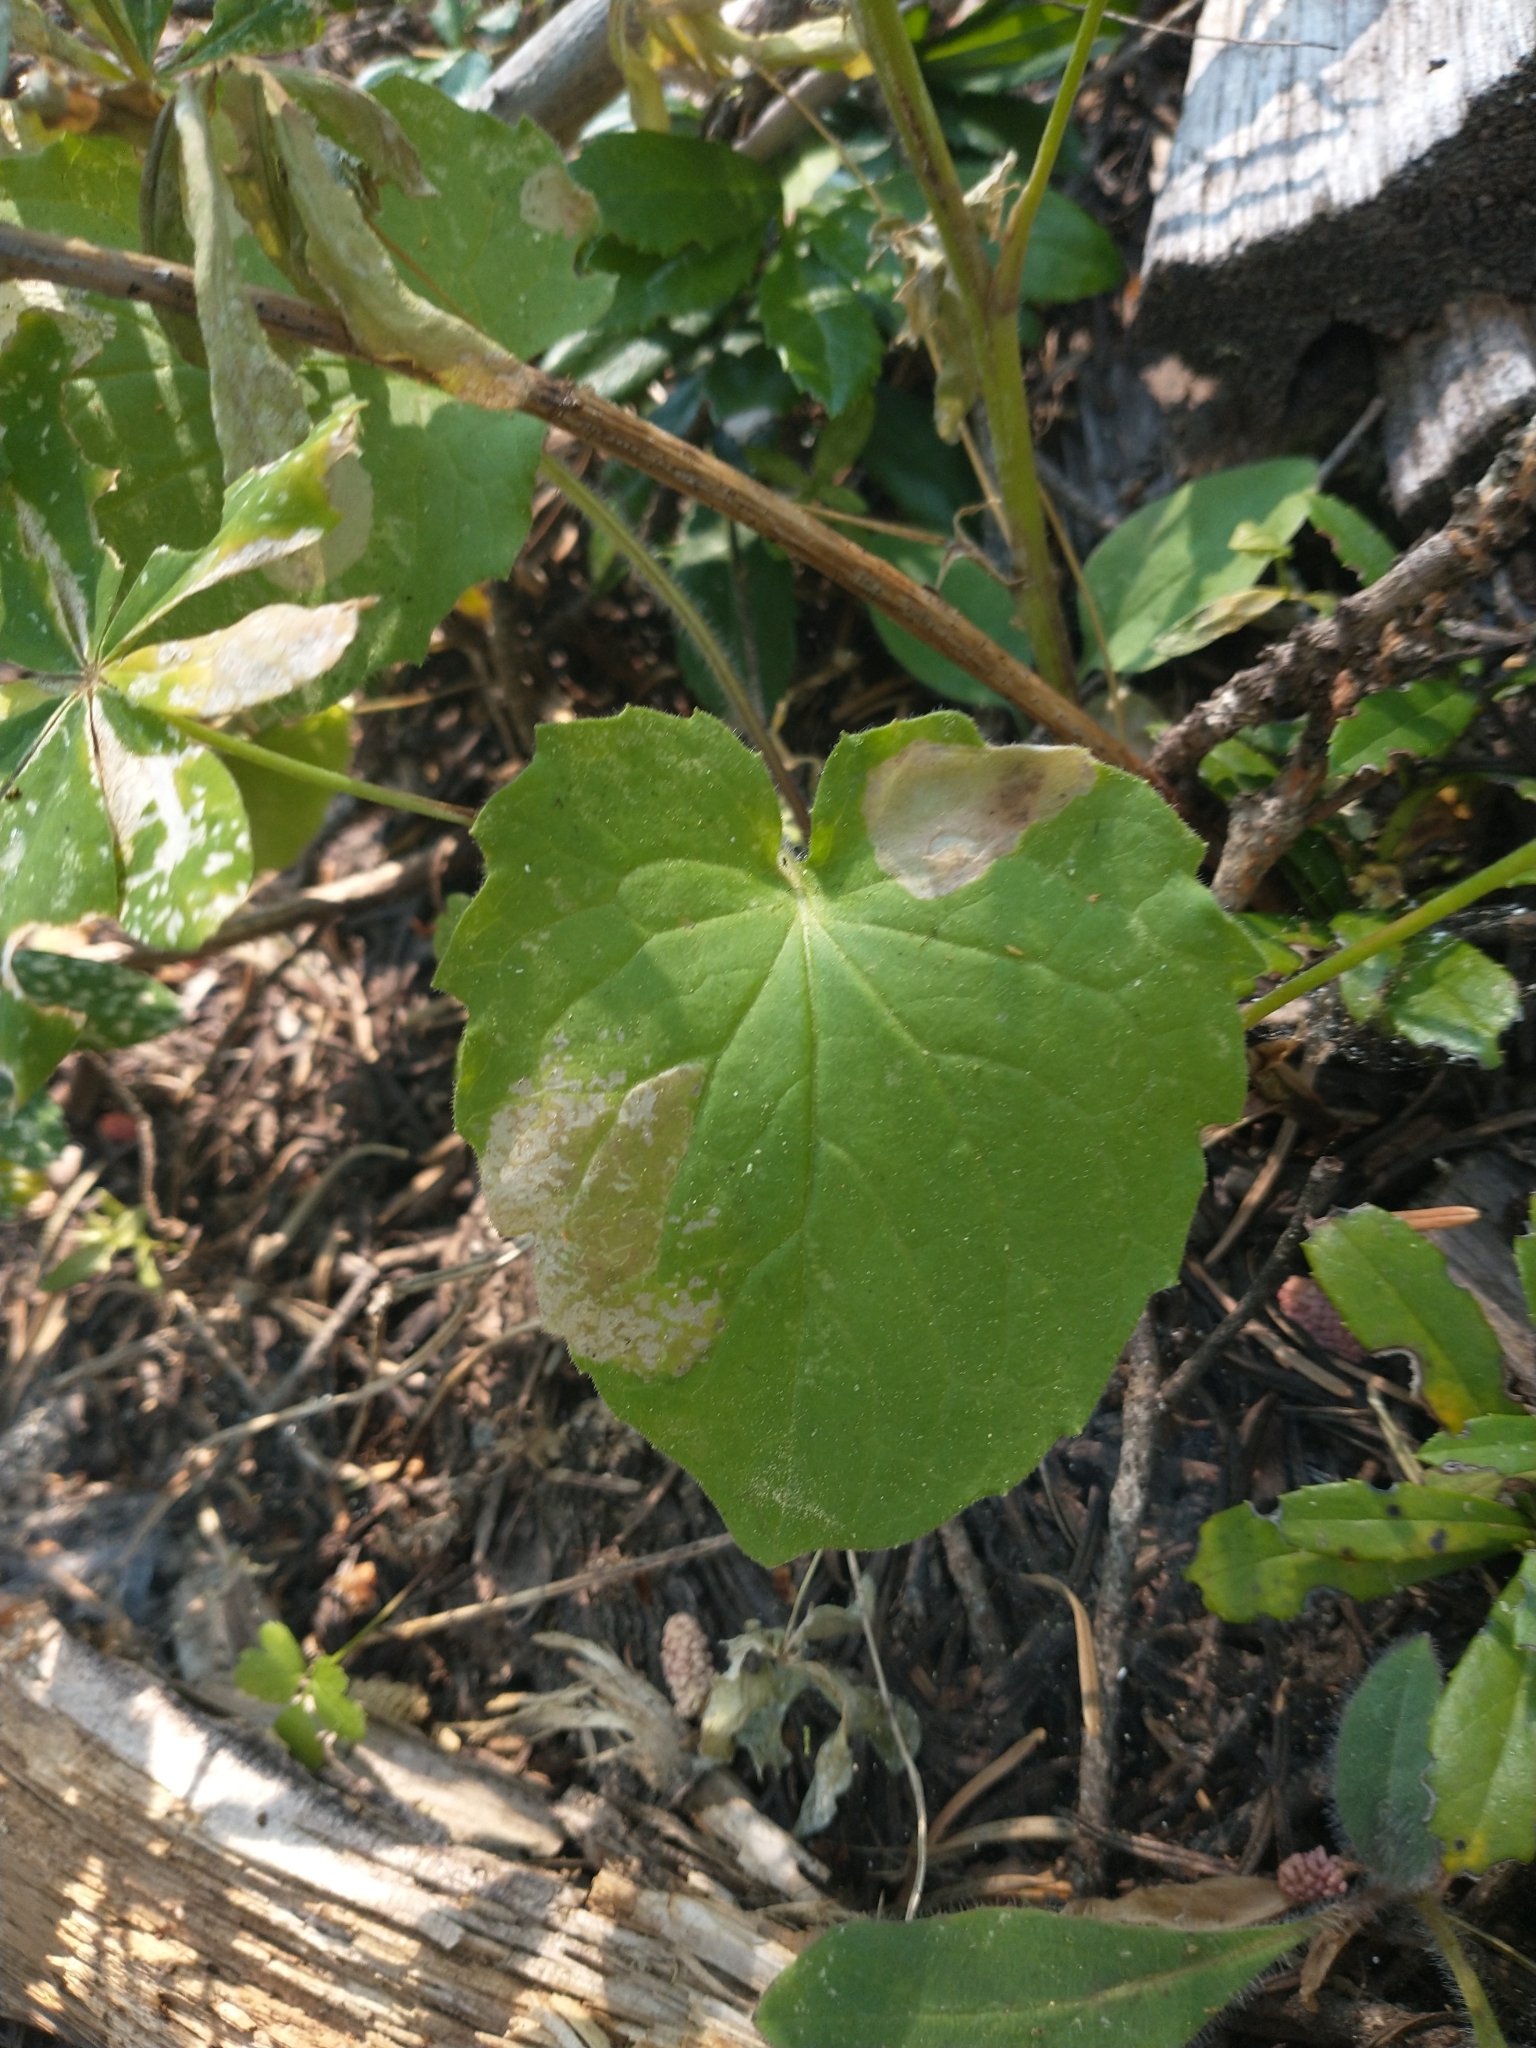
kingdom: Plantae
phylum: Tracheophyta
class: Magnoliopsida
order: Asterales
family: Asteraceae
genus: Arnica
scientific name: Arnica cordifolia
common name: Heart-leaf arnica
